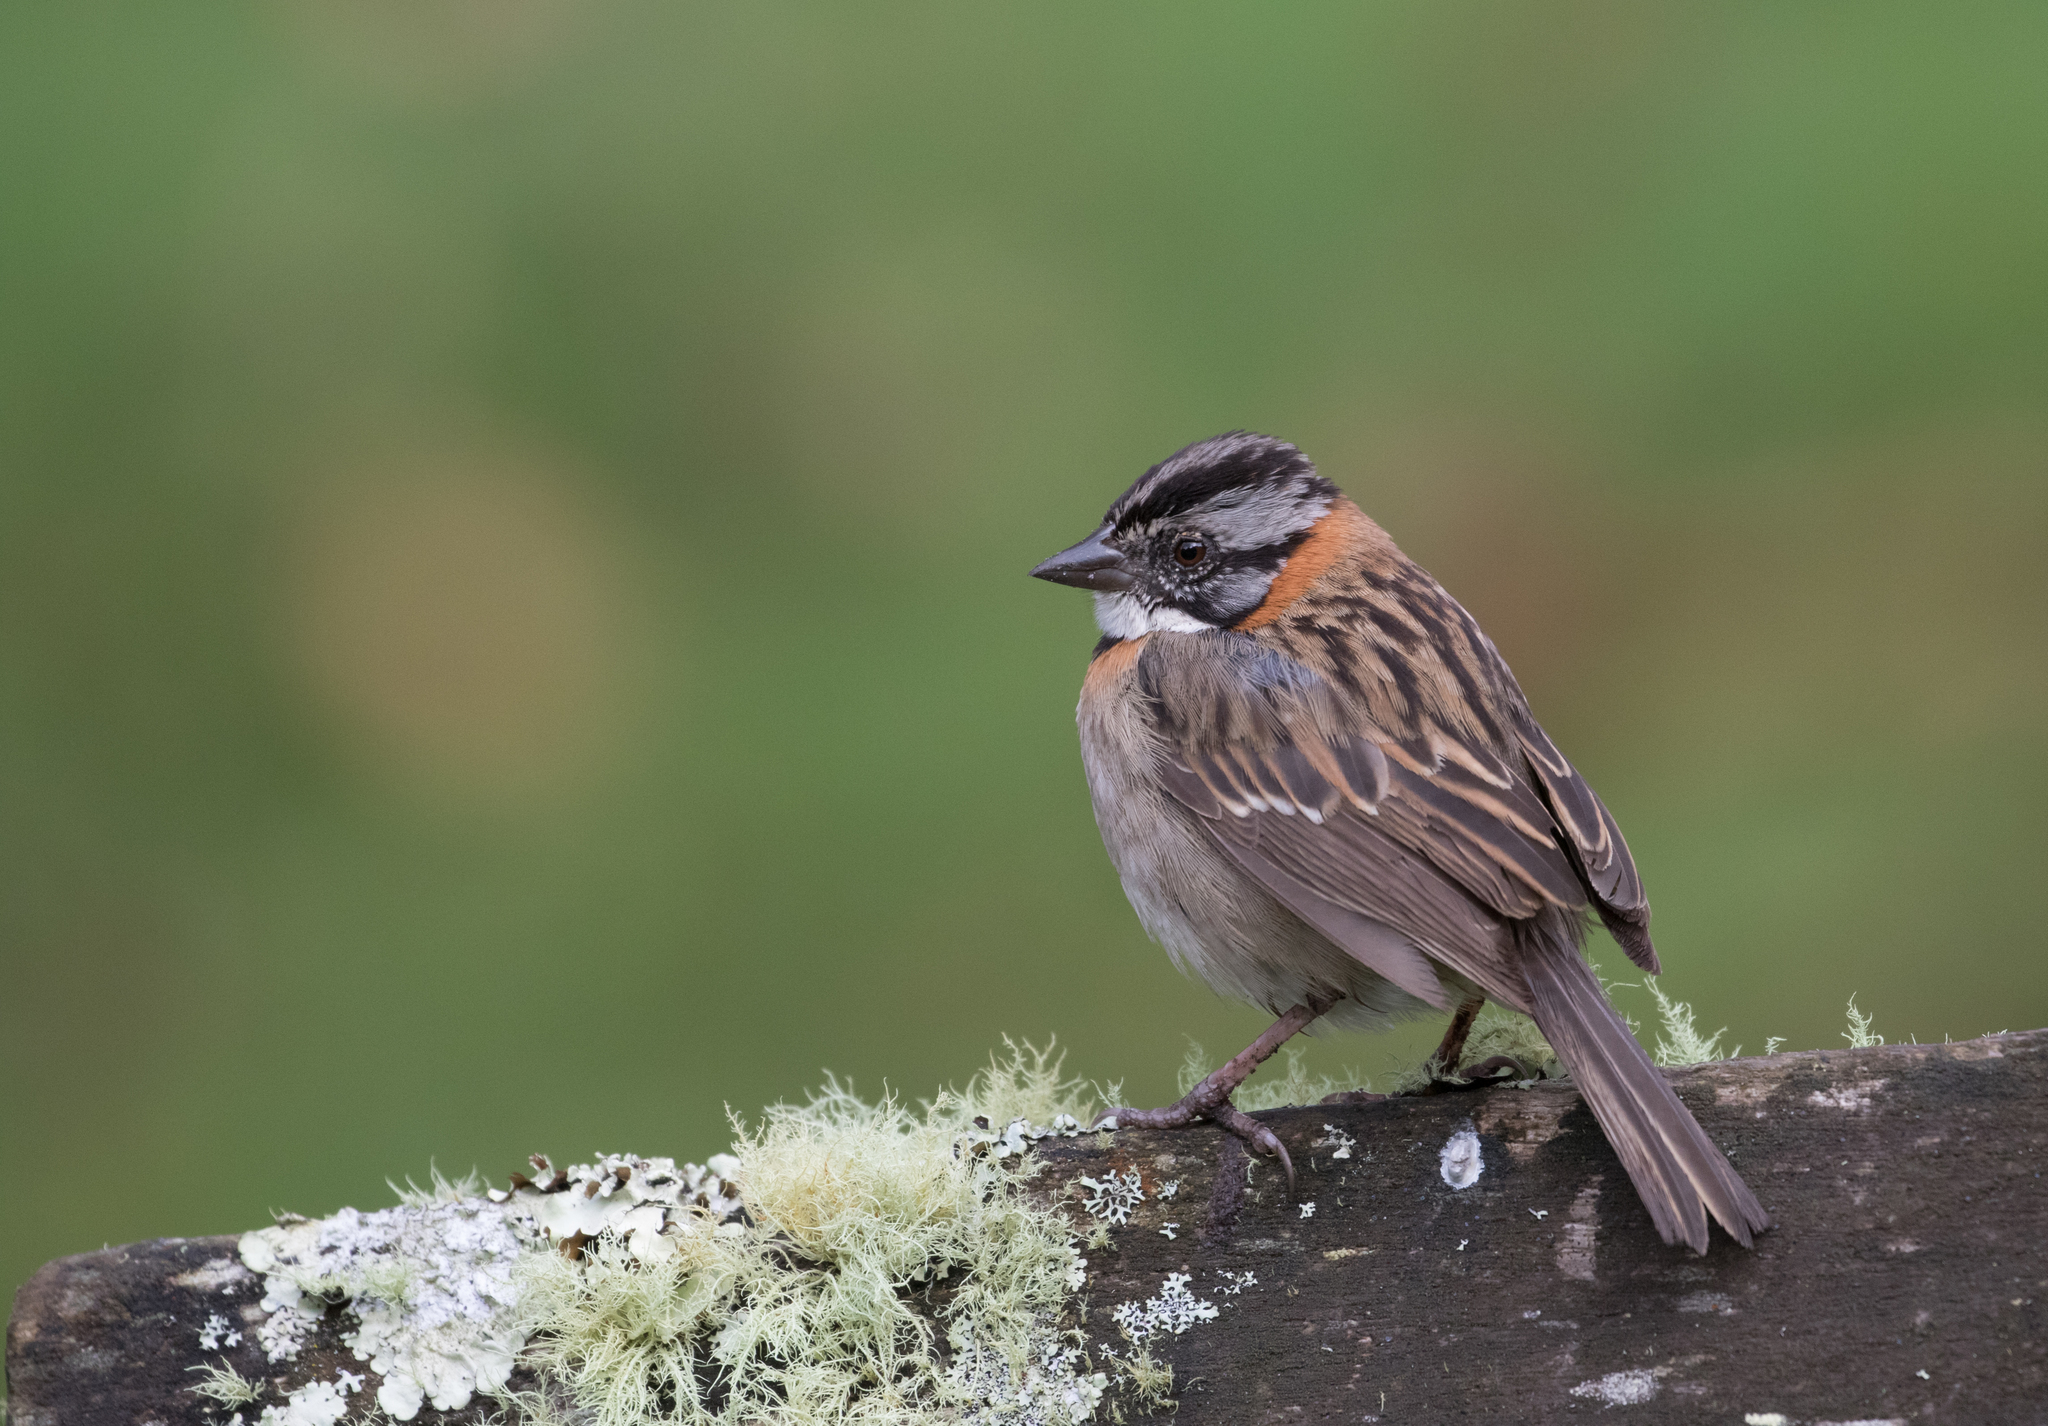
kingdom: Animalia
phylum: Chordata
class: Aves
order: Passeriformes
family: Passerellidae
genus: Zonotrichia
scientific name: Zonotrichia capensis
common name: Rufous-collared sparrow
